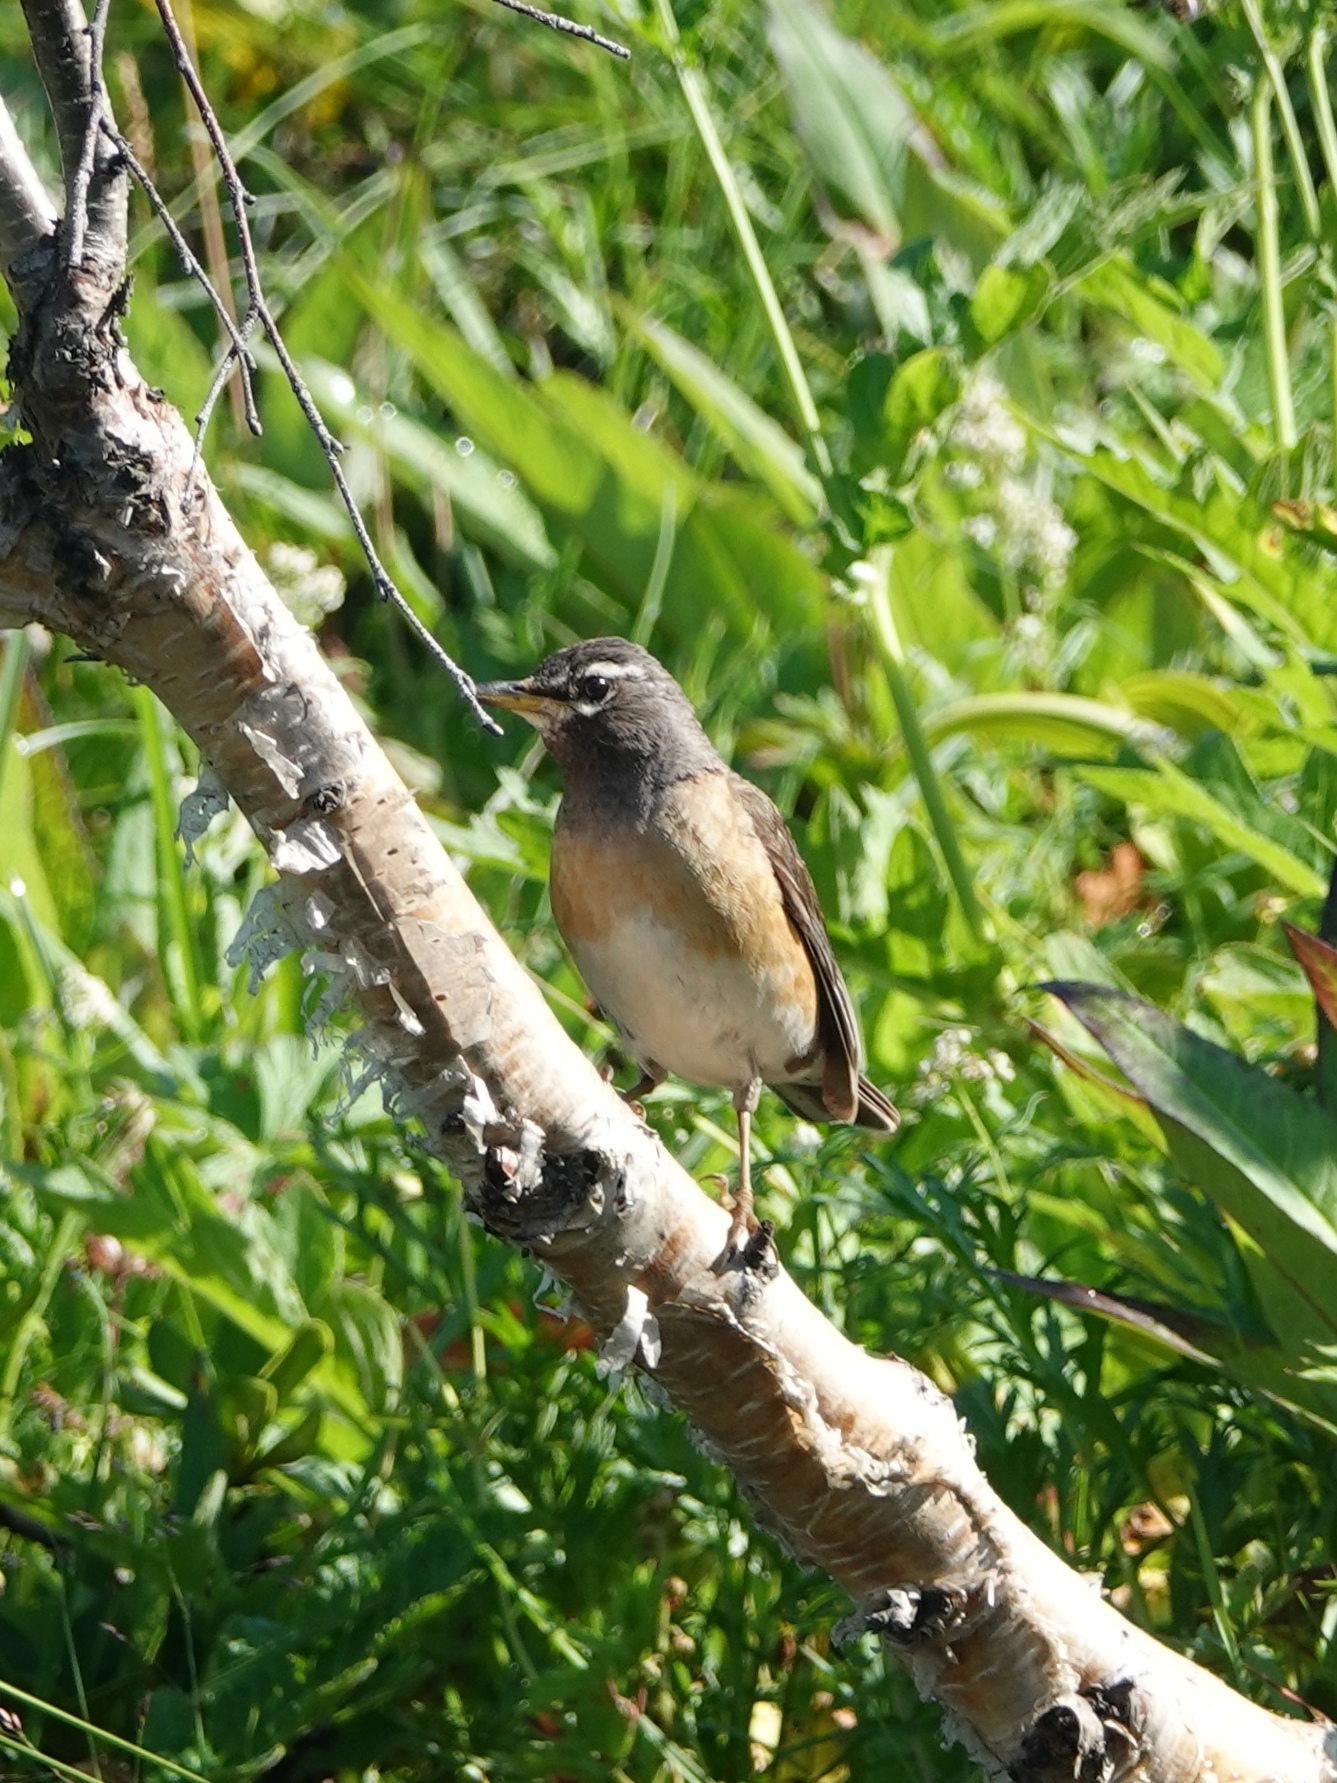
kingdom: Animalia
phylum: Chordata
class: Aves
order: Passeriformes
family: Turdidae
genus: Turdus
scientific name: Turdus obscurus
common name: Eyebrowed thrush
